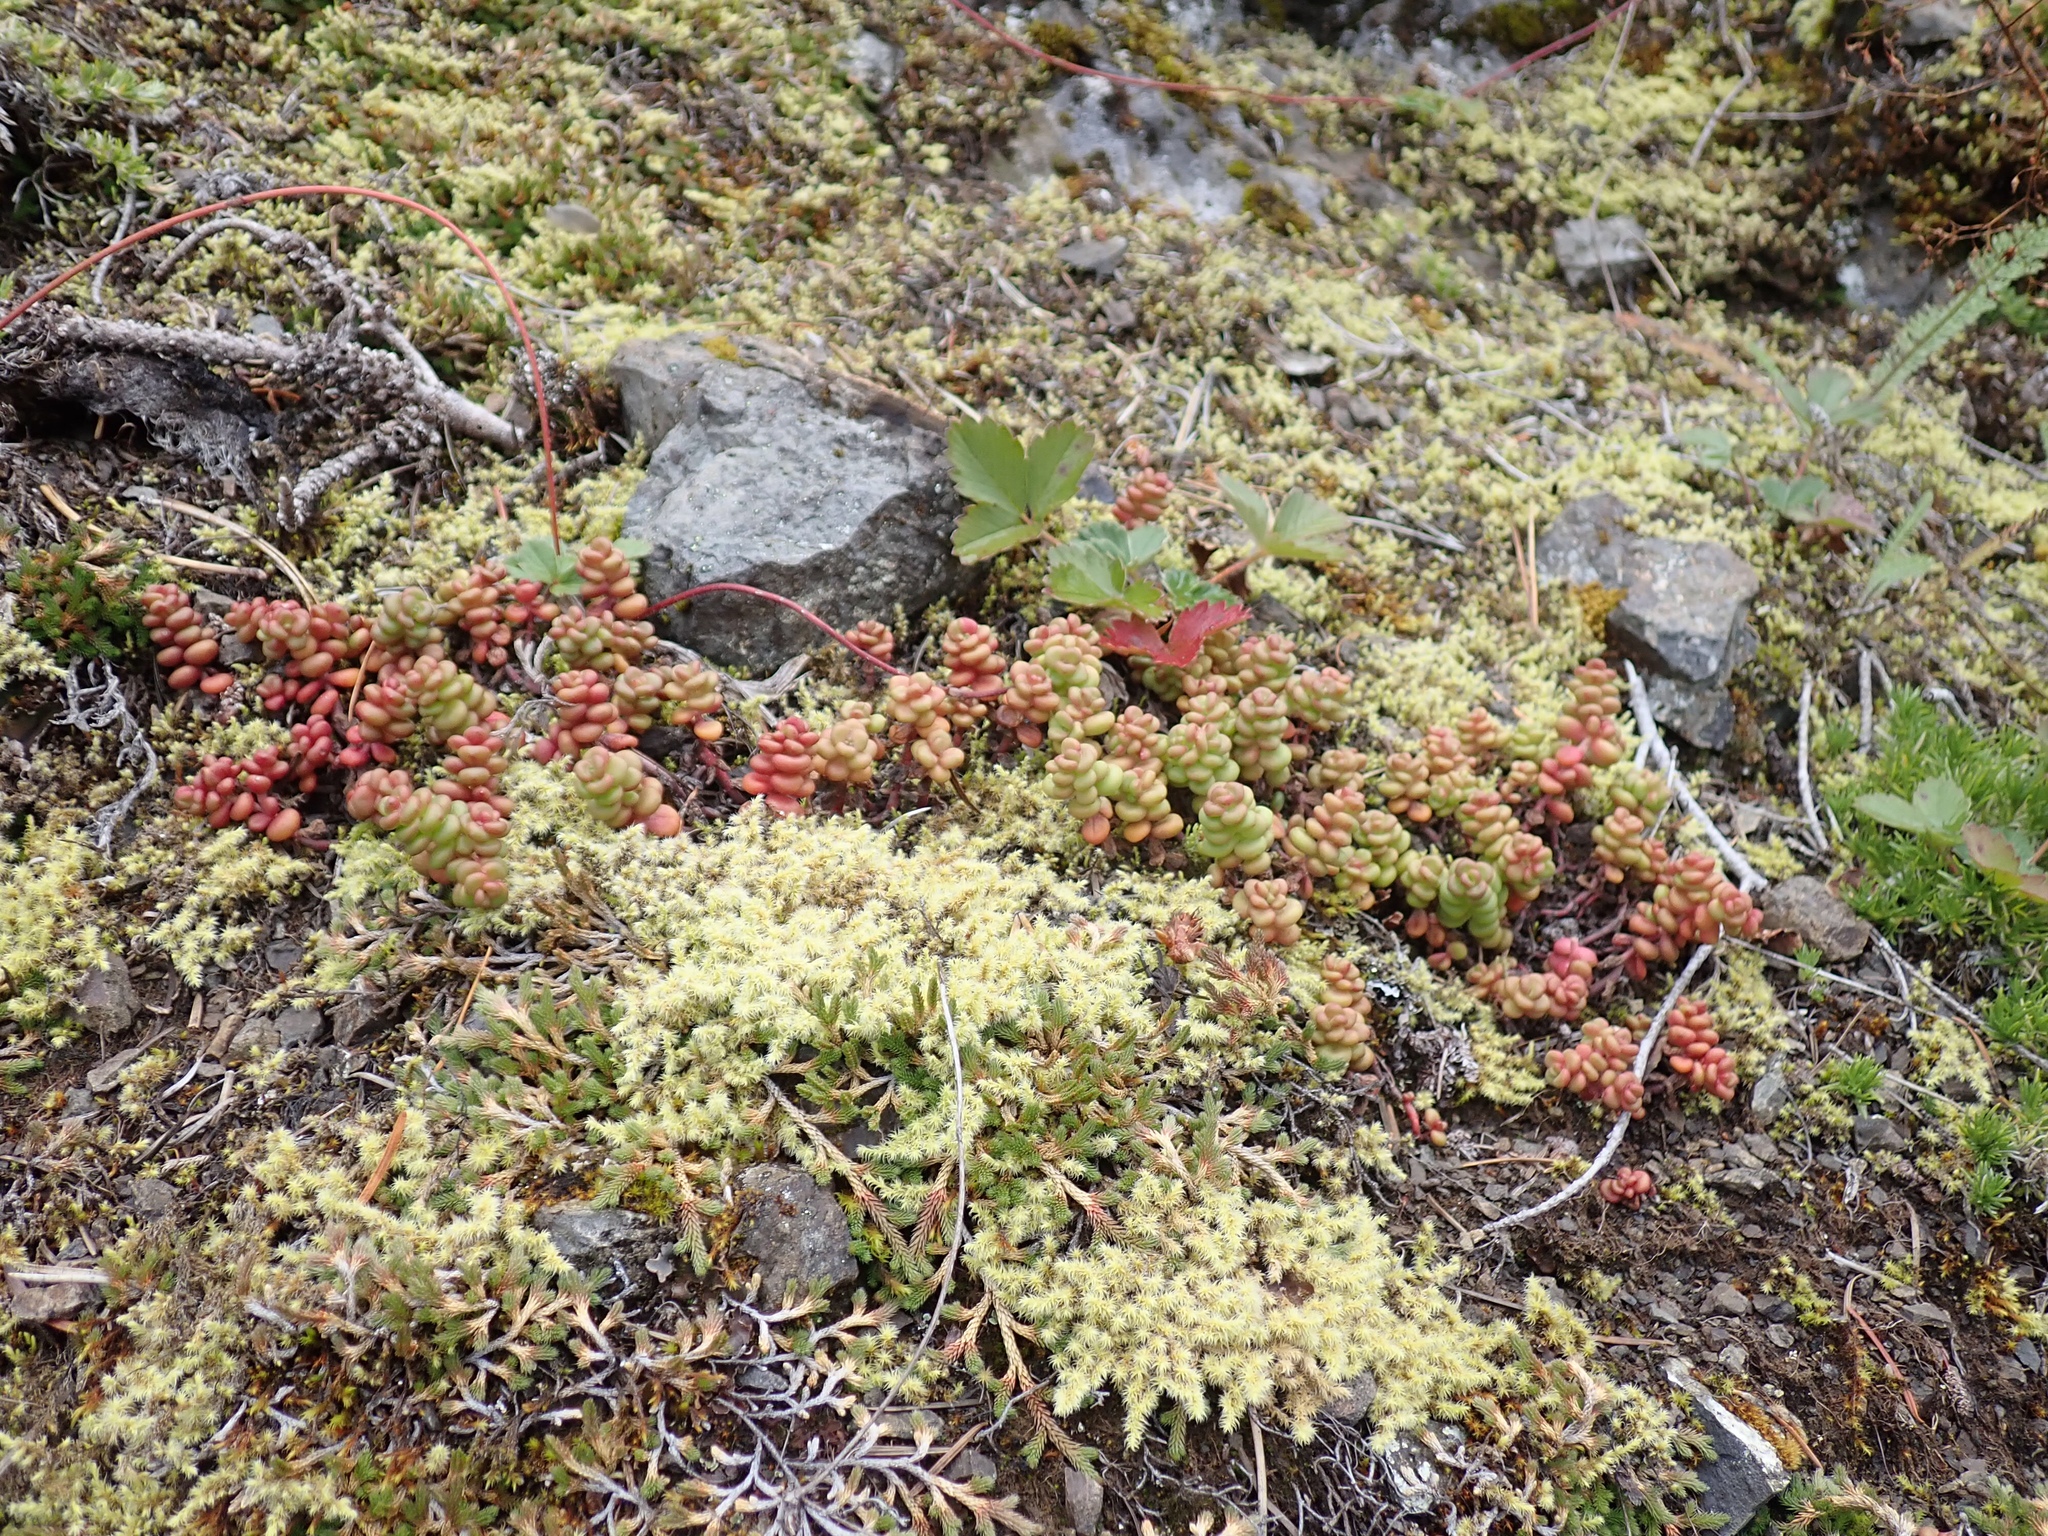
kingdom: Plantae
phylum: Tracheophyta
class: Magnoliopsida
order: Saxifragales
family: Crassulaceae
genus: Sedum
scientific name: Sedum divergens
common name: Cascade stonecrop
